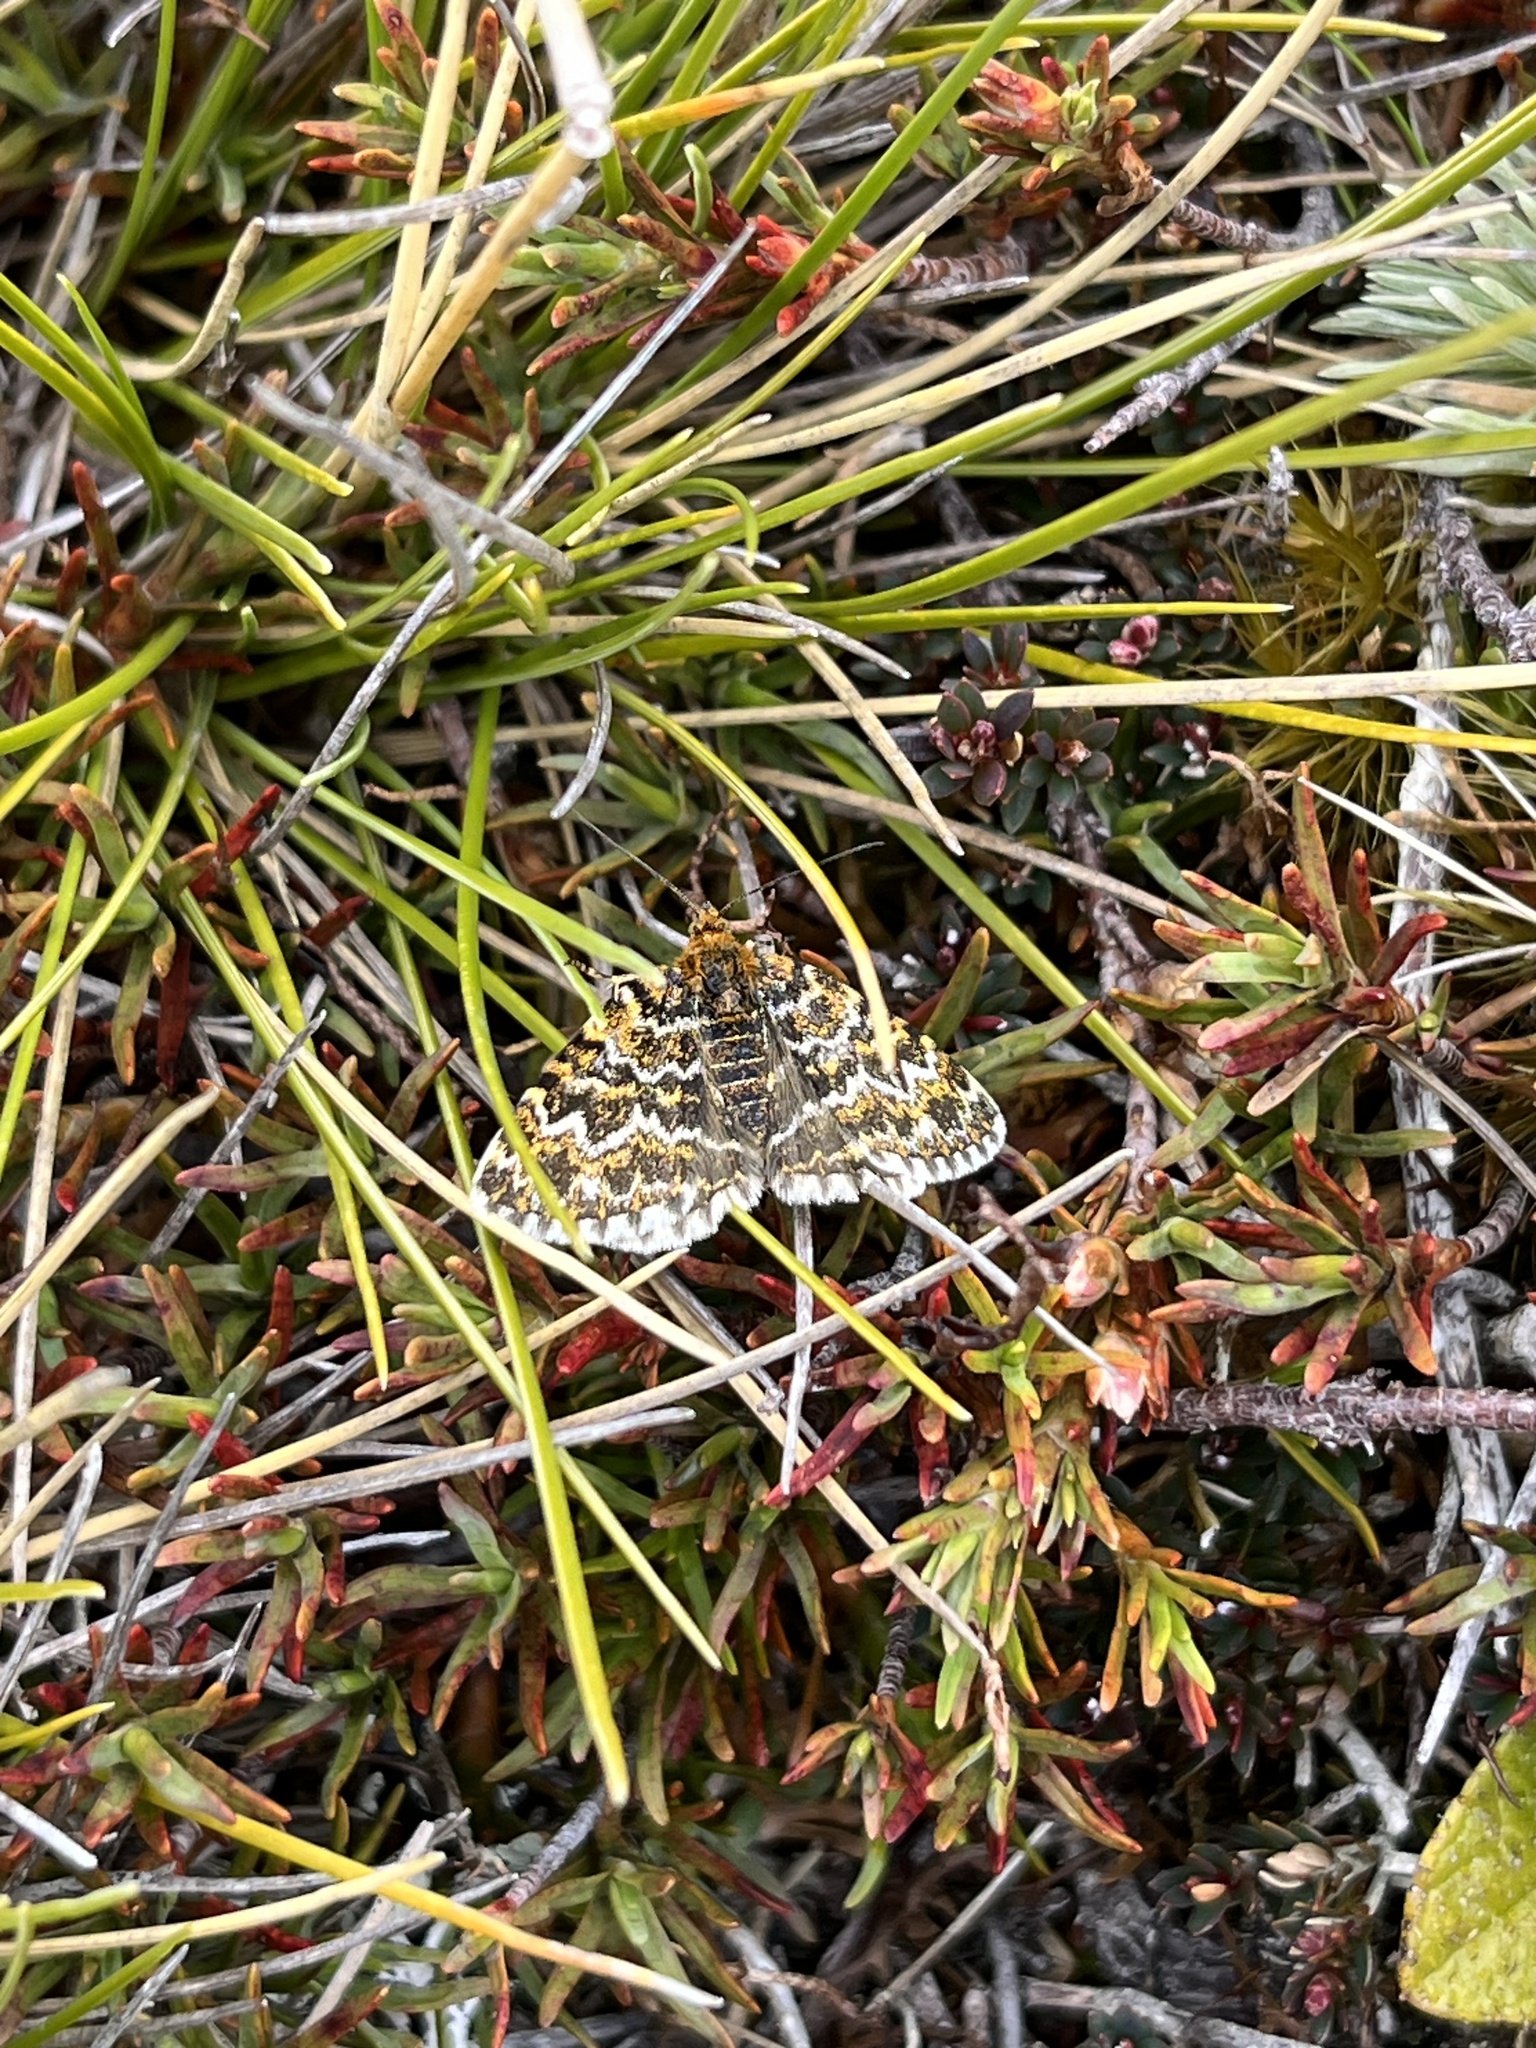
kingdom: Animalia
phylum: Arthropoda
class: Insecta
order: Lepidoptera
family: Geometridae
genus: Notoreas
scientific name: Notoreas arcuata
